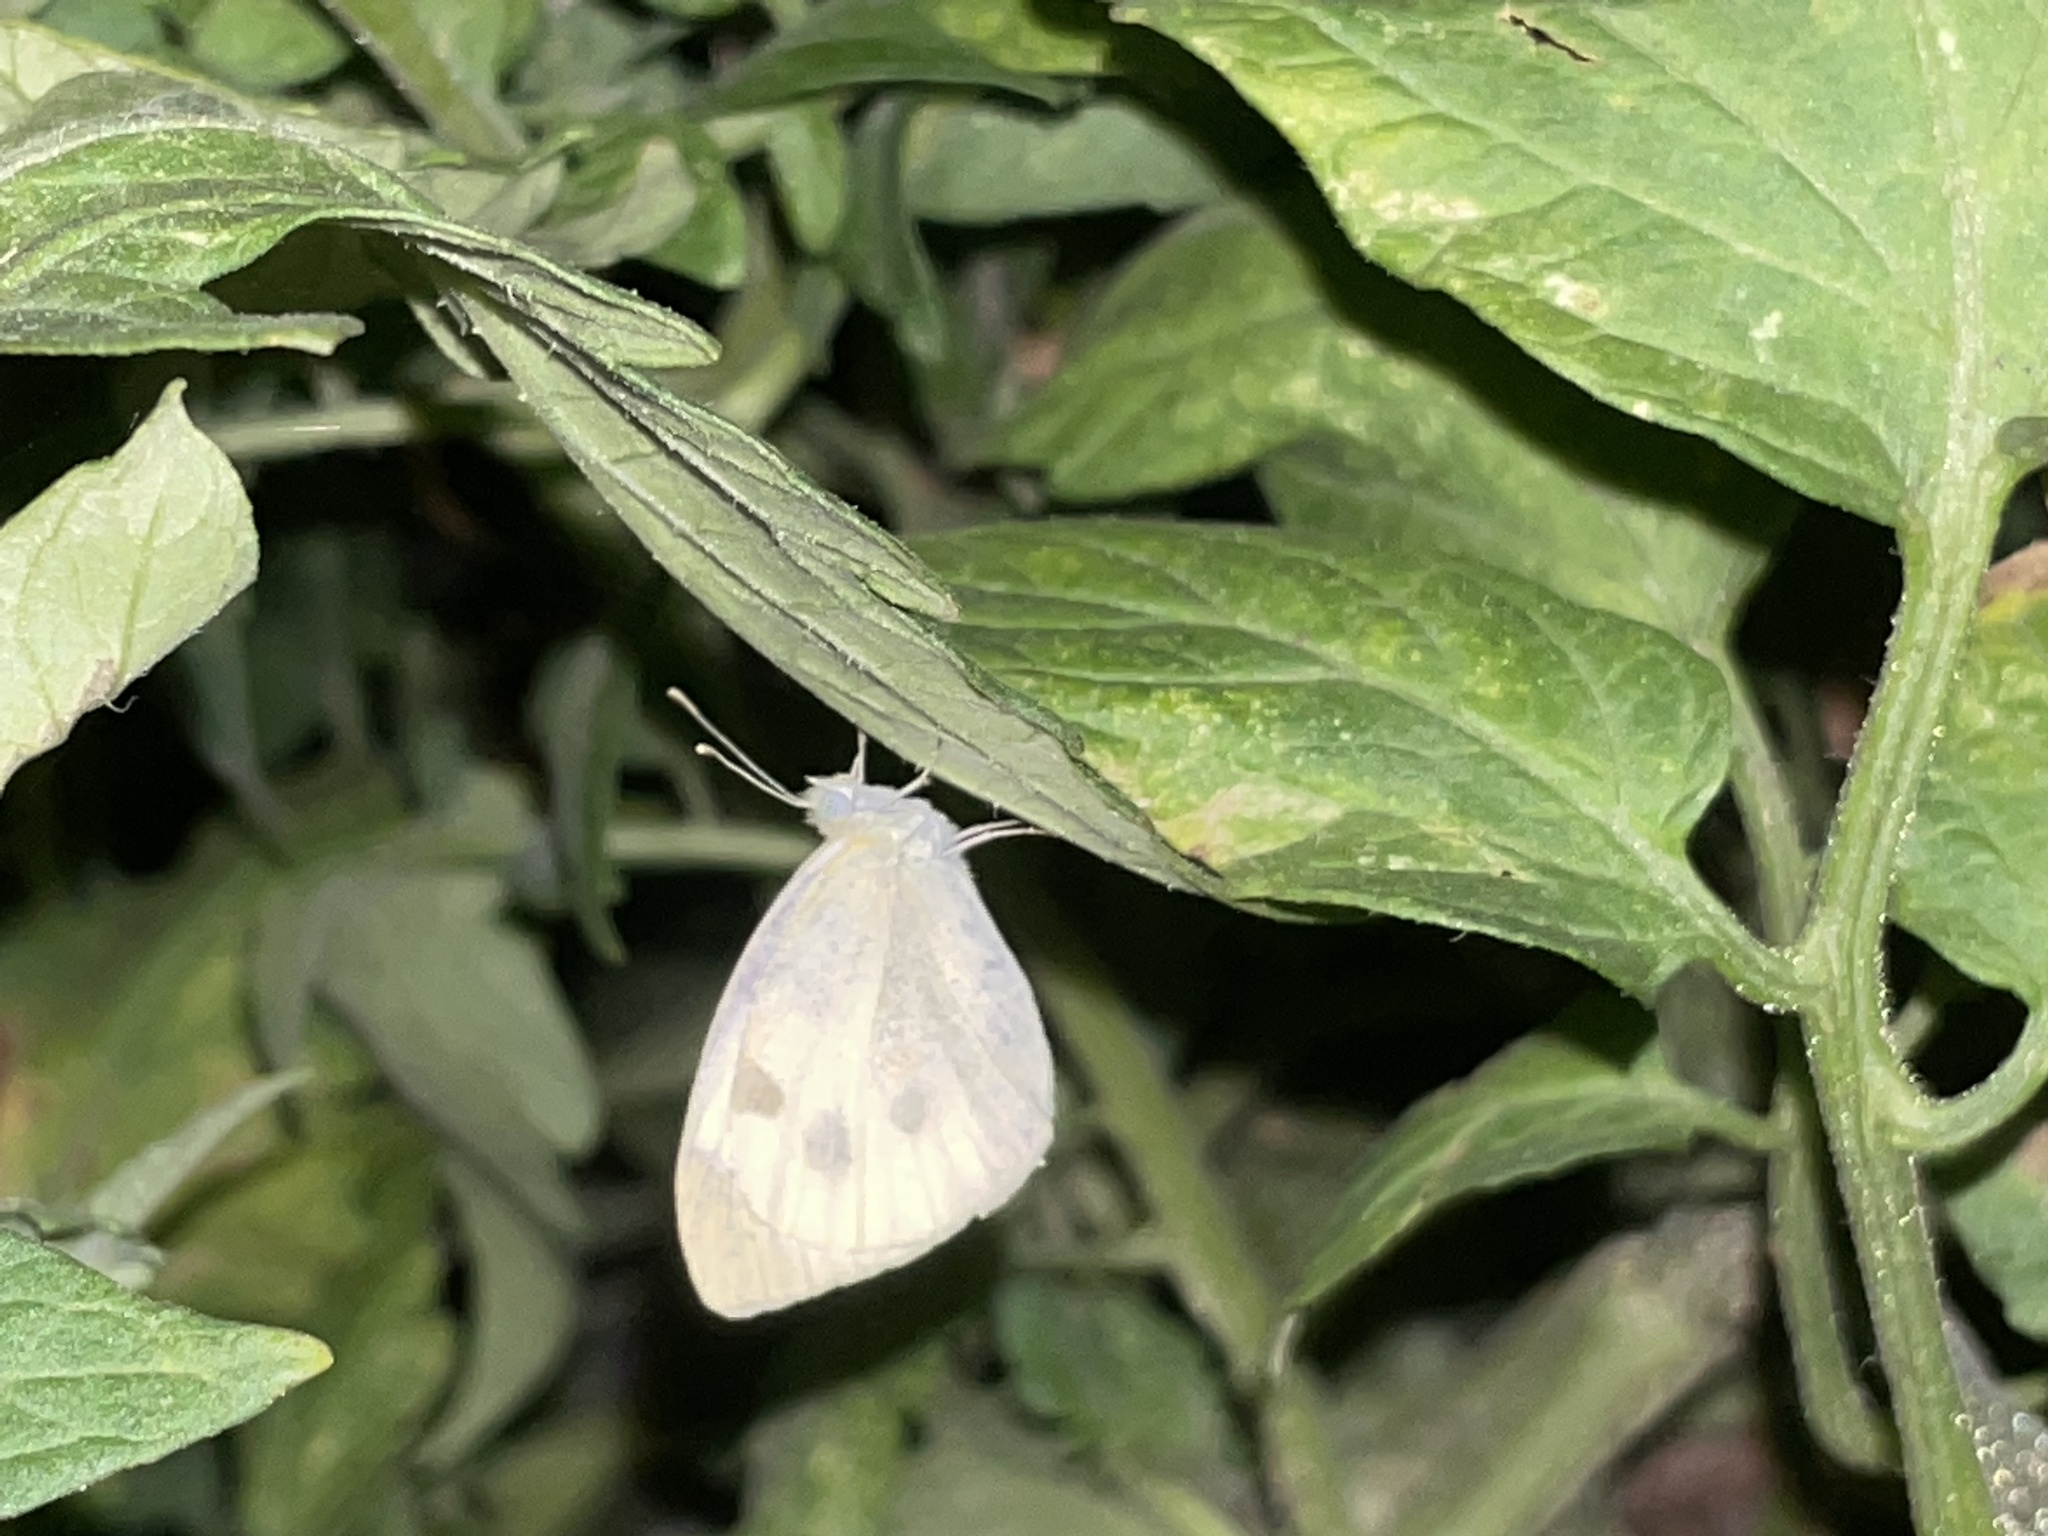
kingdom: Animalia
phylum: Arthropoda
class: Insecta
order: Lepidoptera
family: Pieridae
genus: Pieris
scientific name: Pieris rapae
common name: Small white
